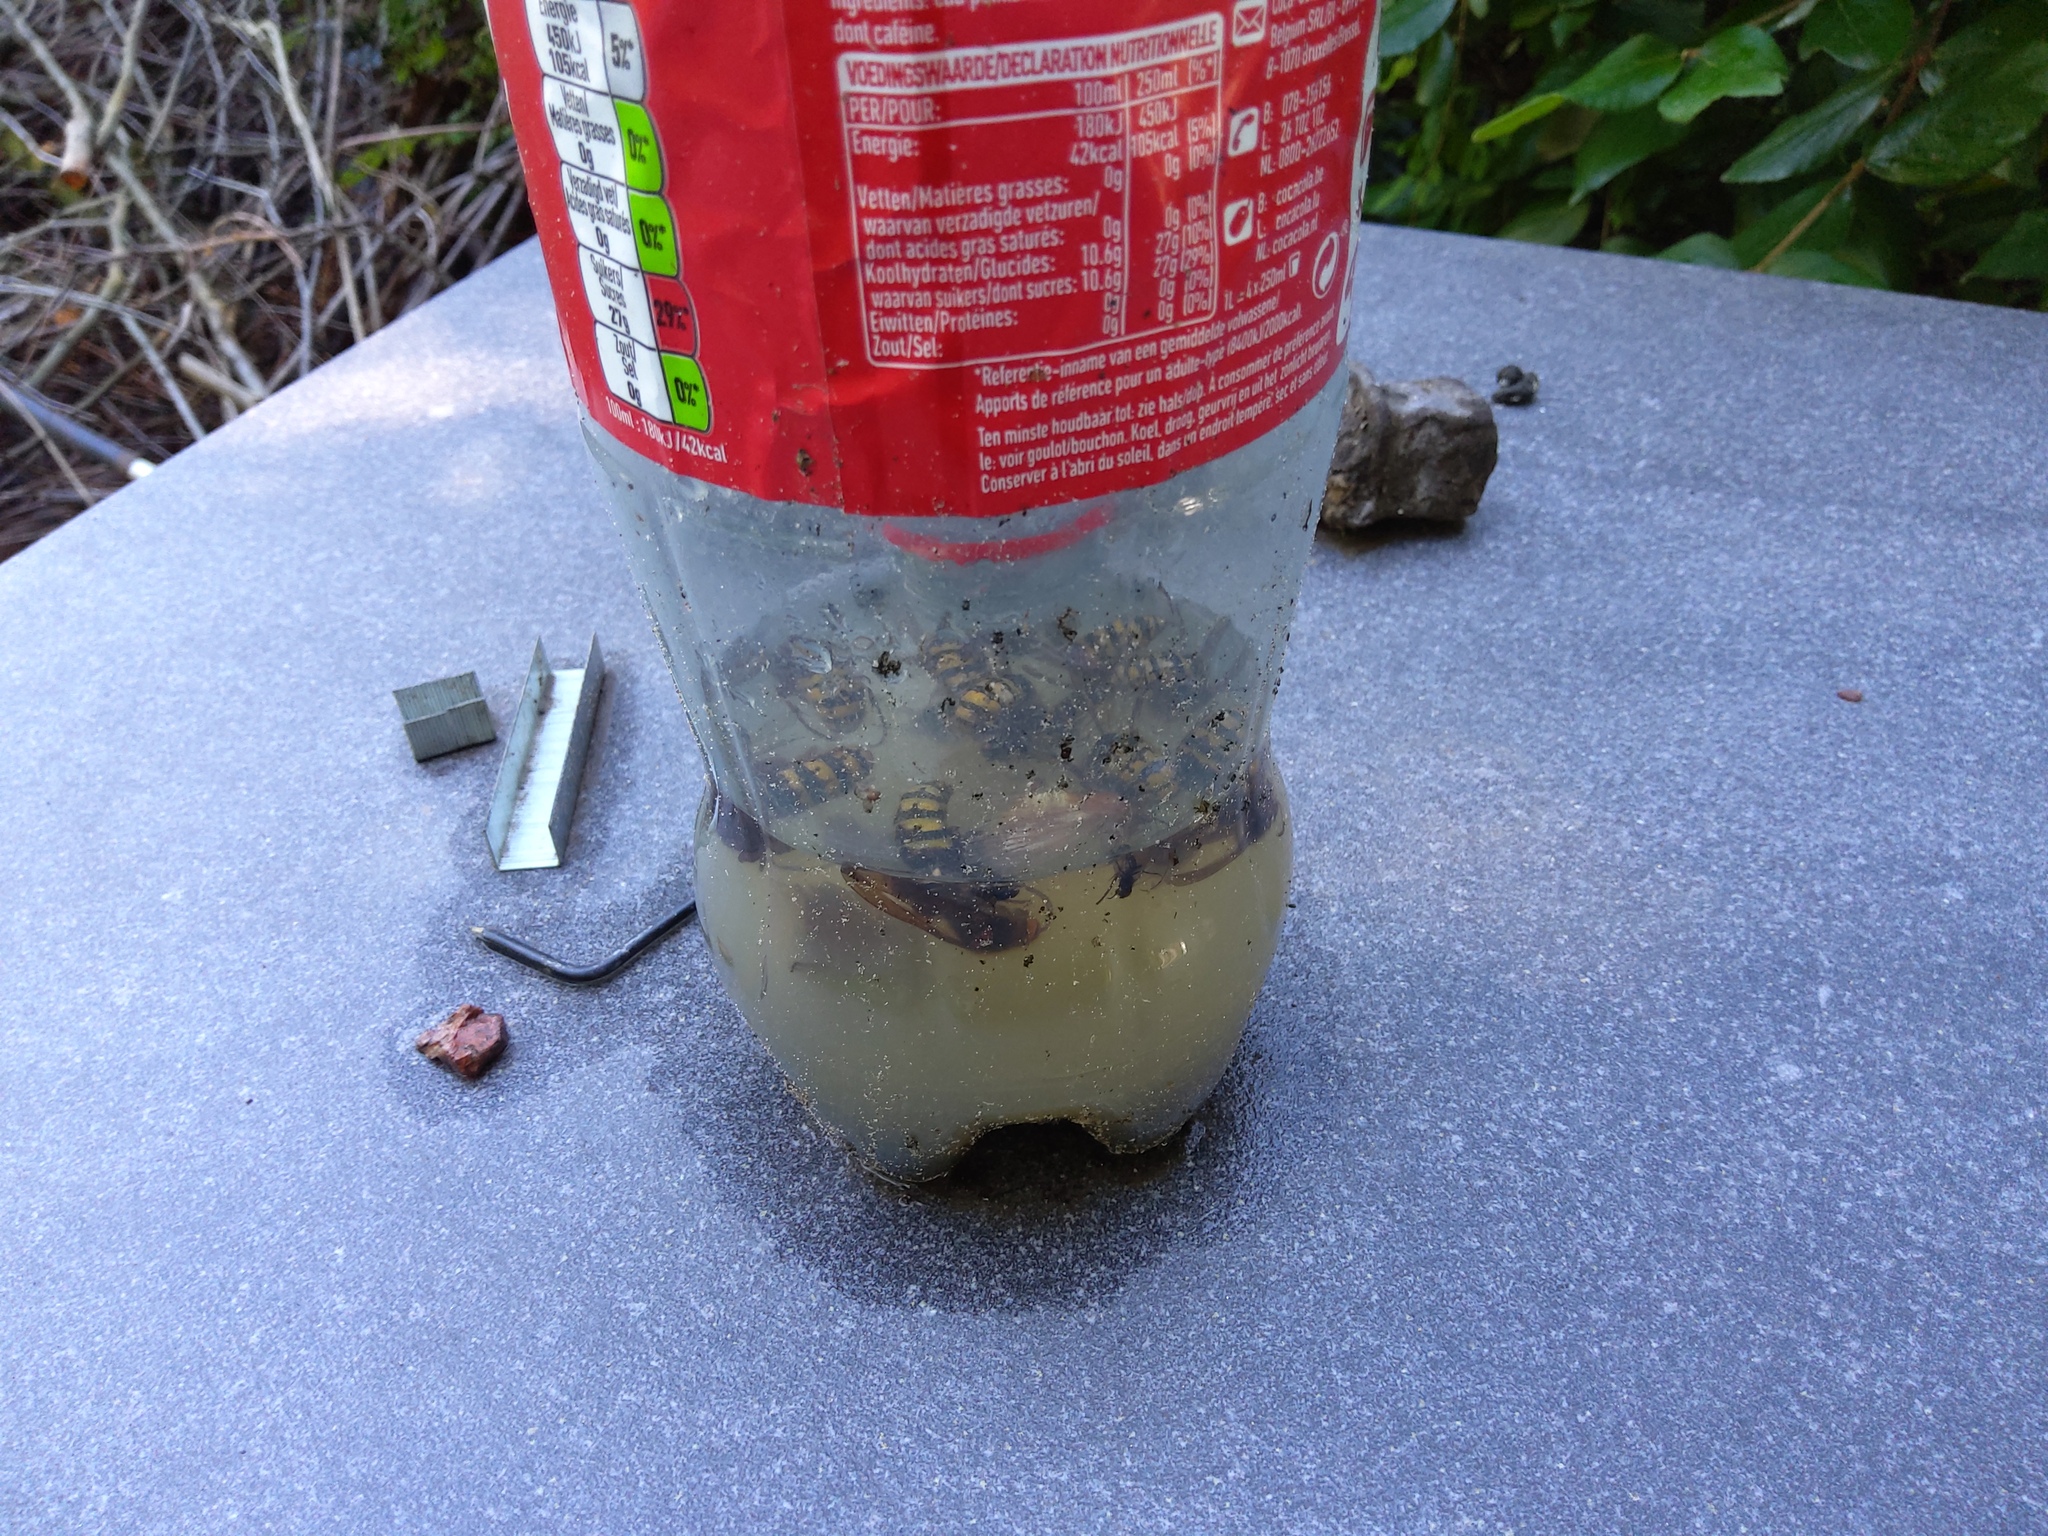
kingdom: Animalia
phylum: Arthropoda
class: Insecta
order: Hymenoptera
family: Vespidae
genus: Vespa
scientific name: Vespa crabro
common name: Hornet
